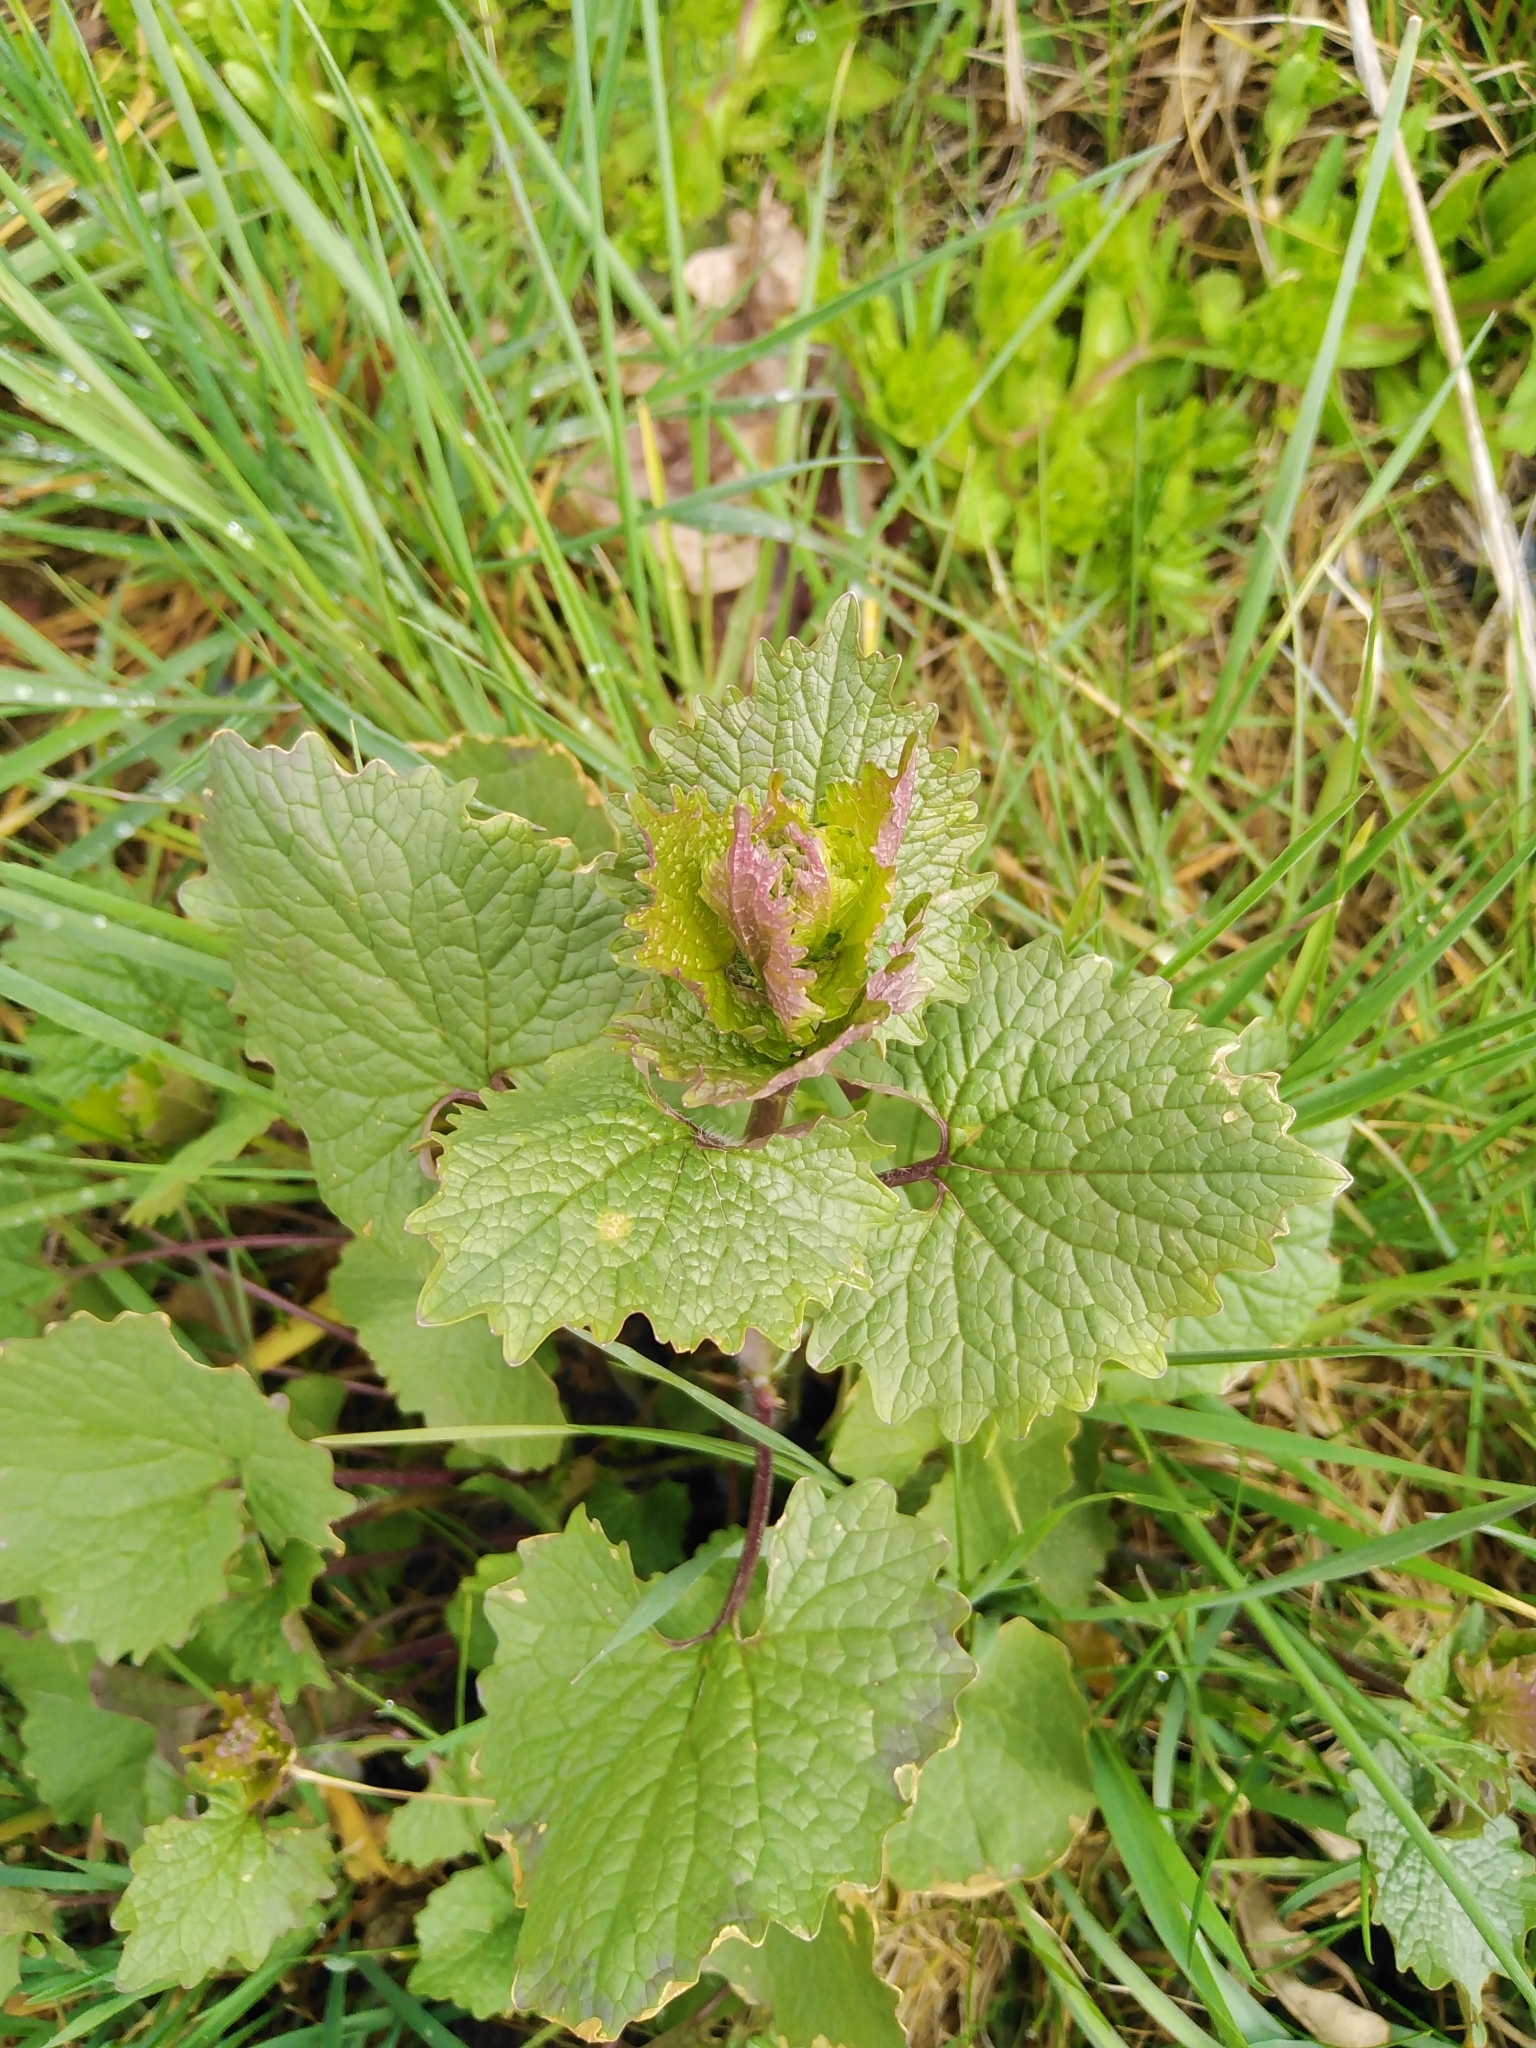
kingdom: Plantae
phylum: Tracheophyta
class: Magnoliopsida
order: Brassicales
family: Brassicaceae
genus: Alliaria
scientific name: Alliaria petiolata
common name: Garlic mustard
